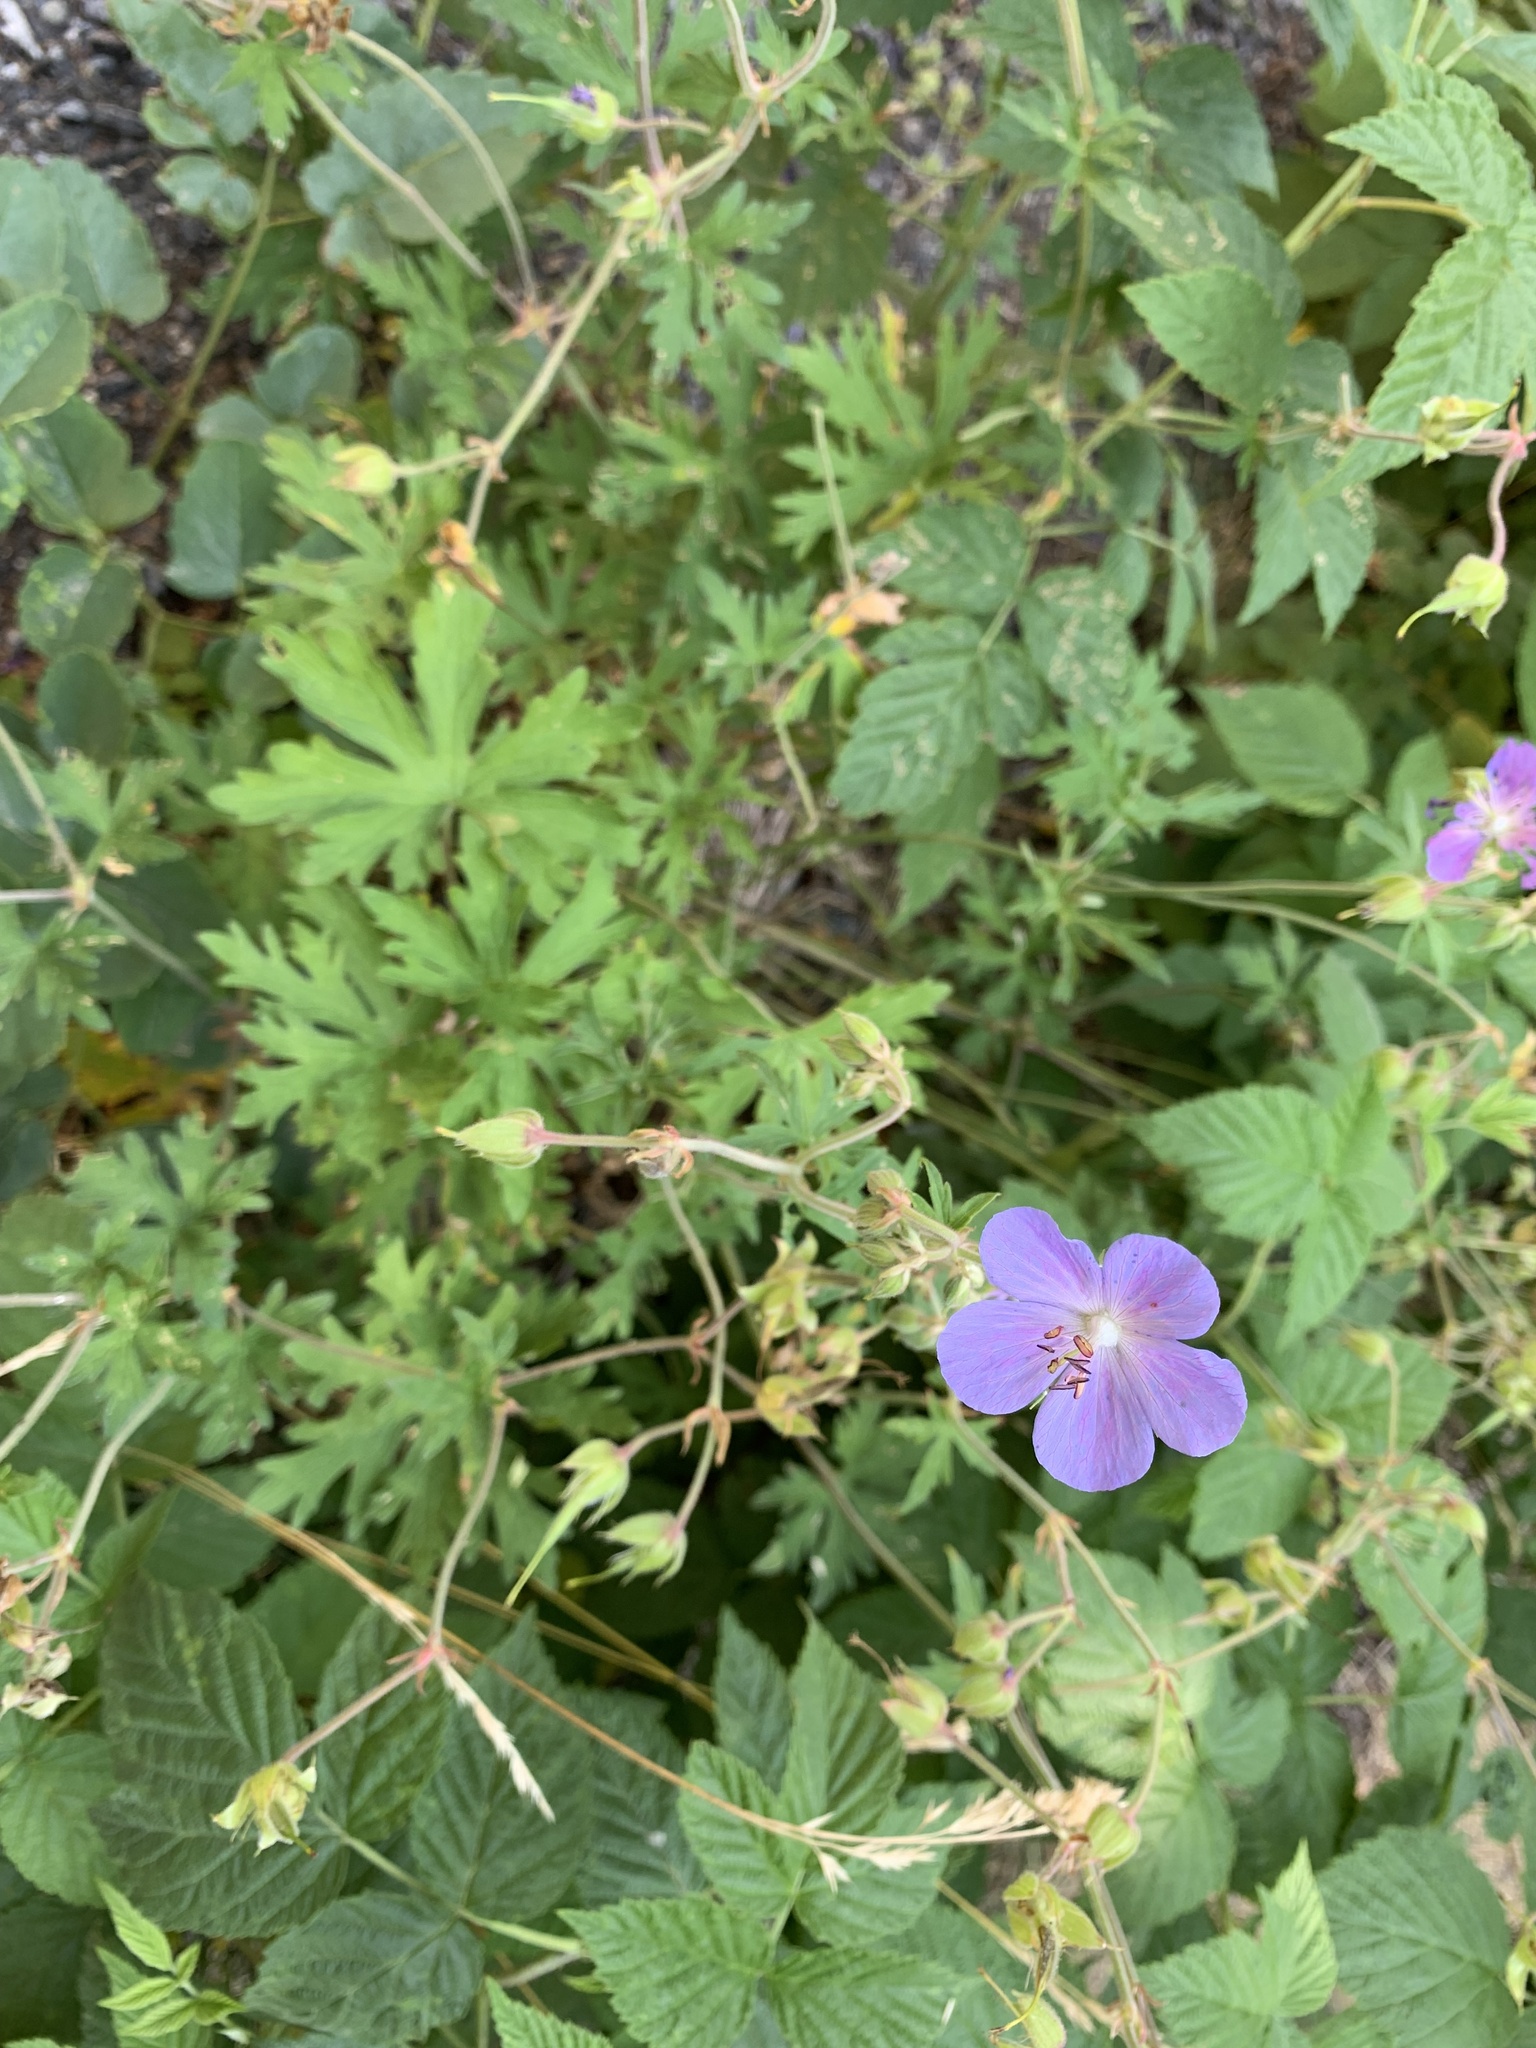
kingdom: Plantae
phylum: Tracheophyta
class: Magnoliopsida
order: Geraniales
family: Geraniaceae
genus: Geranium
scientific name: Geranium pratense
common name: Meadow crane's-bill
